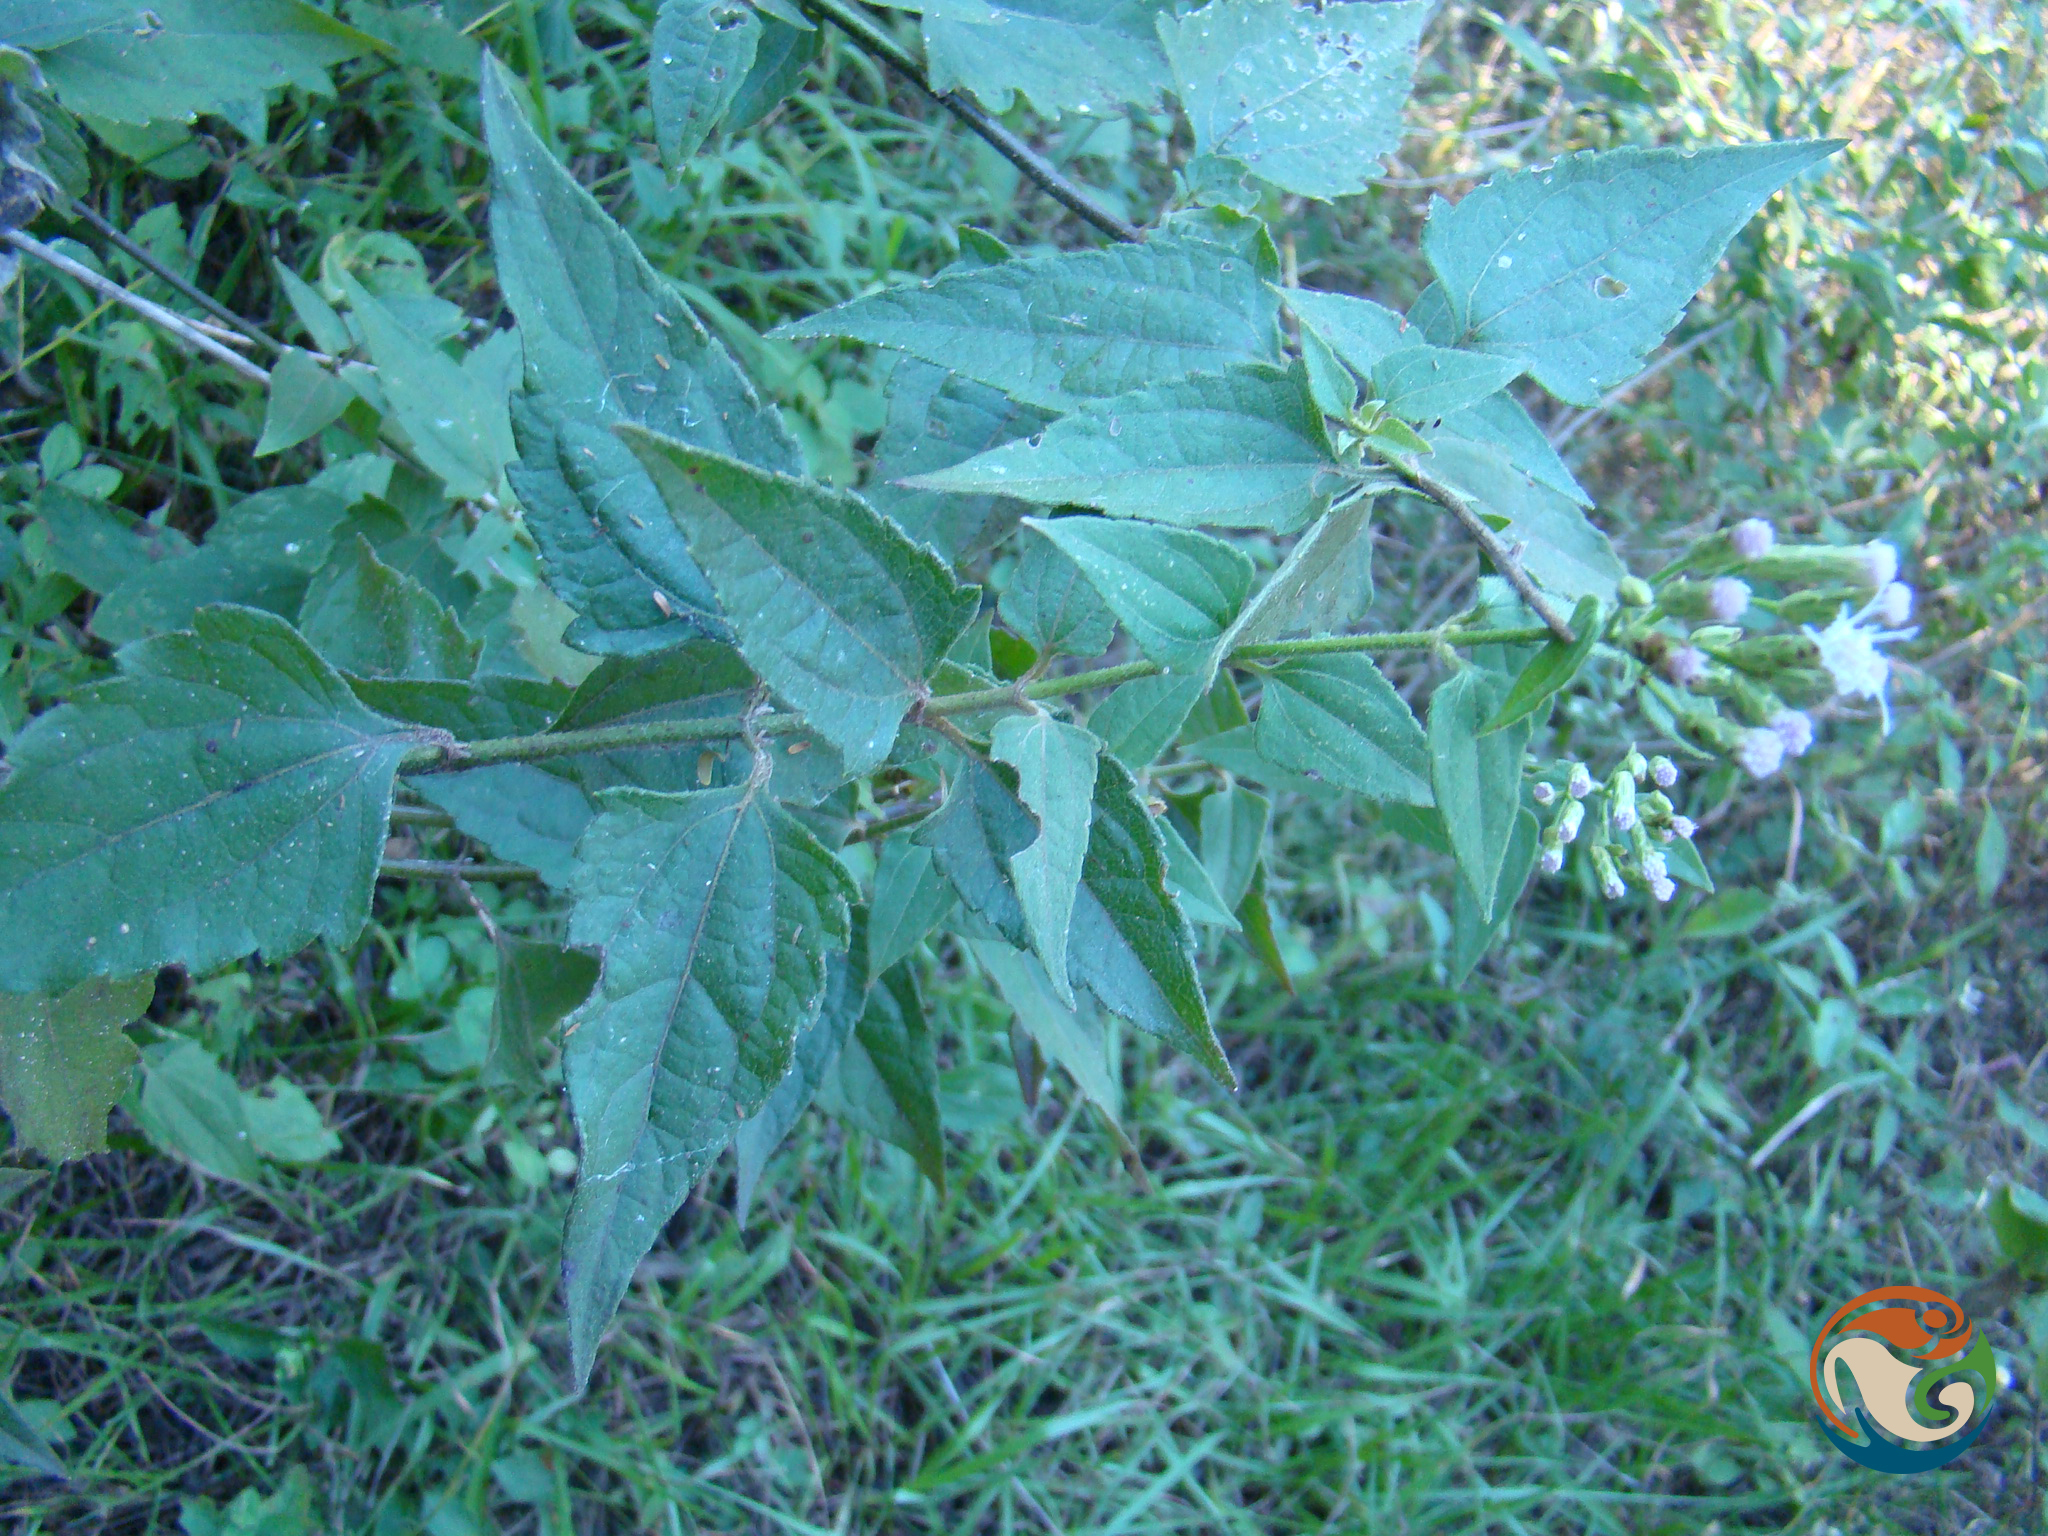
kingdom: Plantae
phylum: Tracheophyta
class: Magnoliopsida
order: Asterales
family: Asteraceae
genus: Chromolaena
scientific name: Chromolaena odorata
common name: Siamweed
